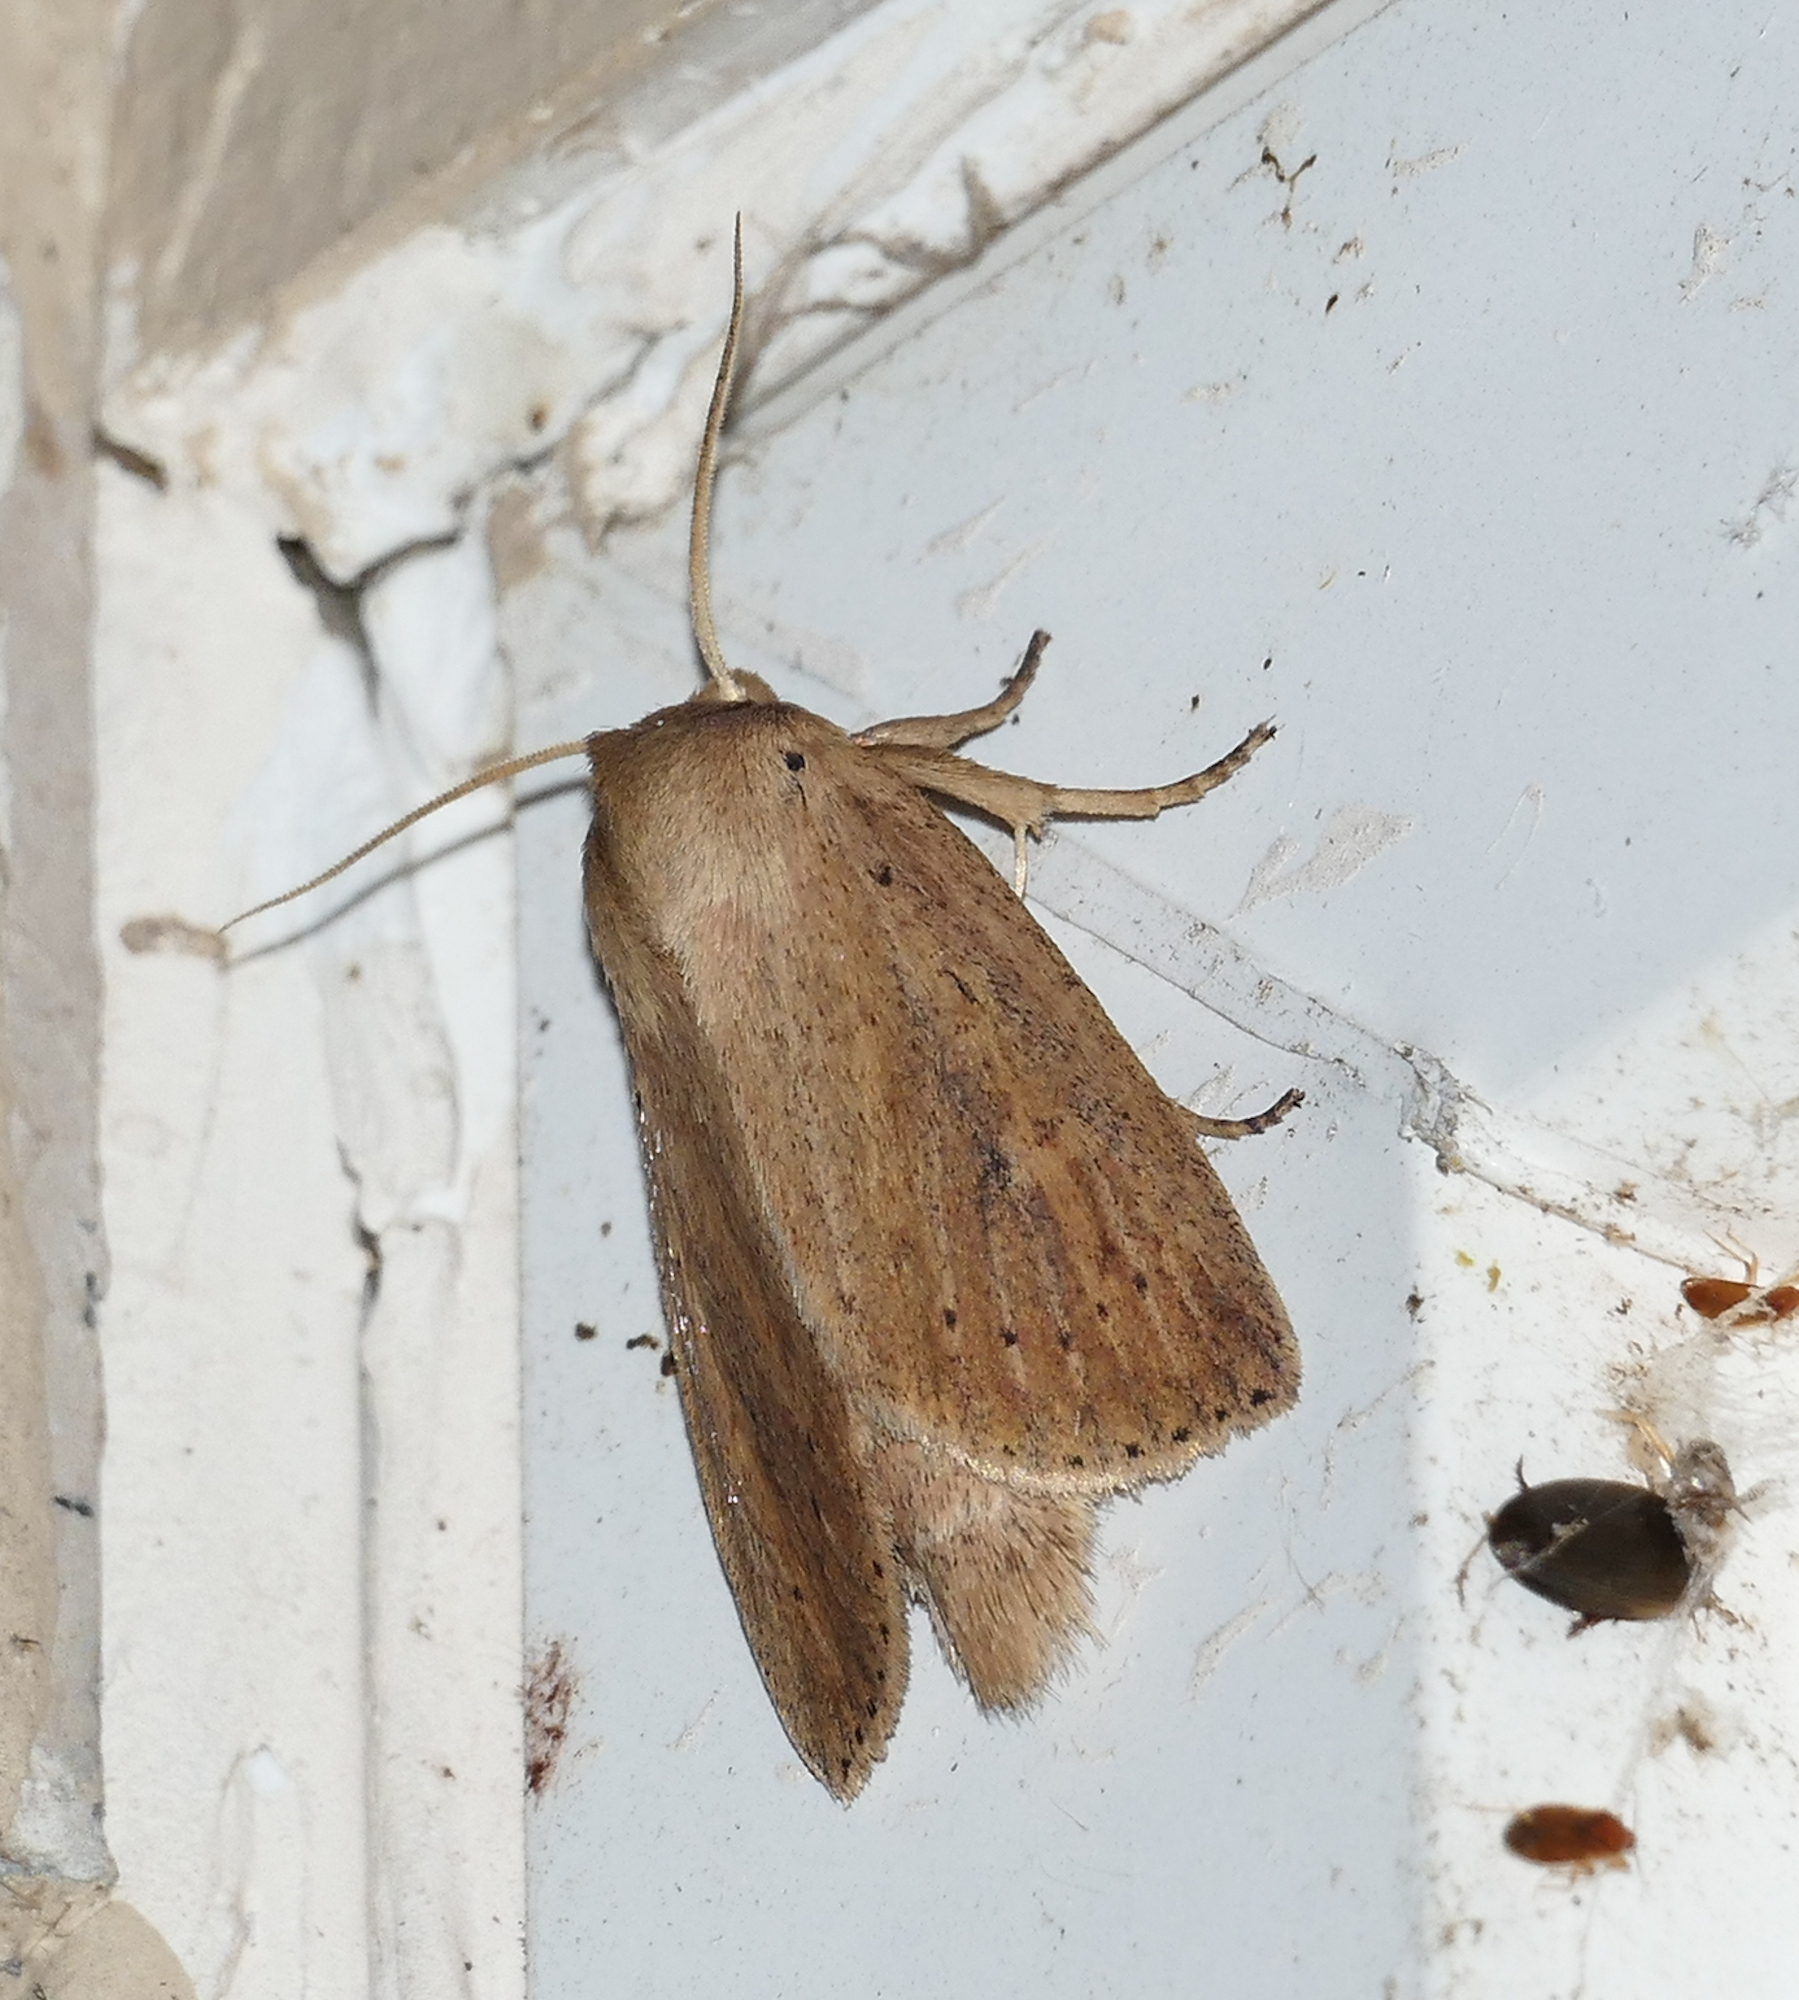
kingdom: Animalia
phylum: Arthropoda
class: Insecta
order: Lepidoptera
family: Noctuidae
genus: Globia
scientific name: Globia oblonga
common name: Oblong sedge borer moth
